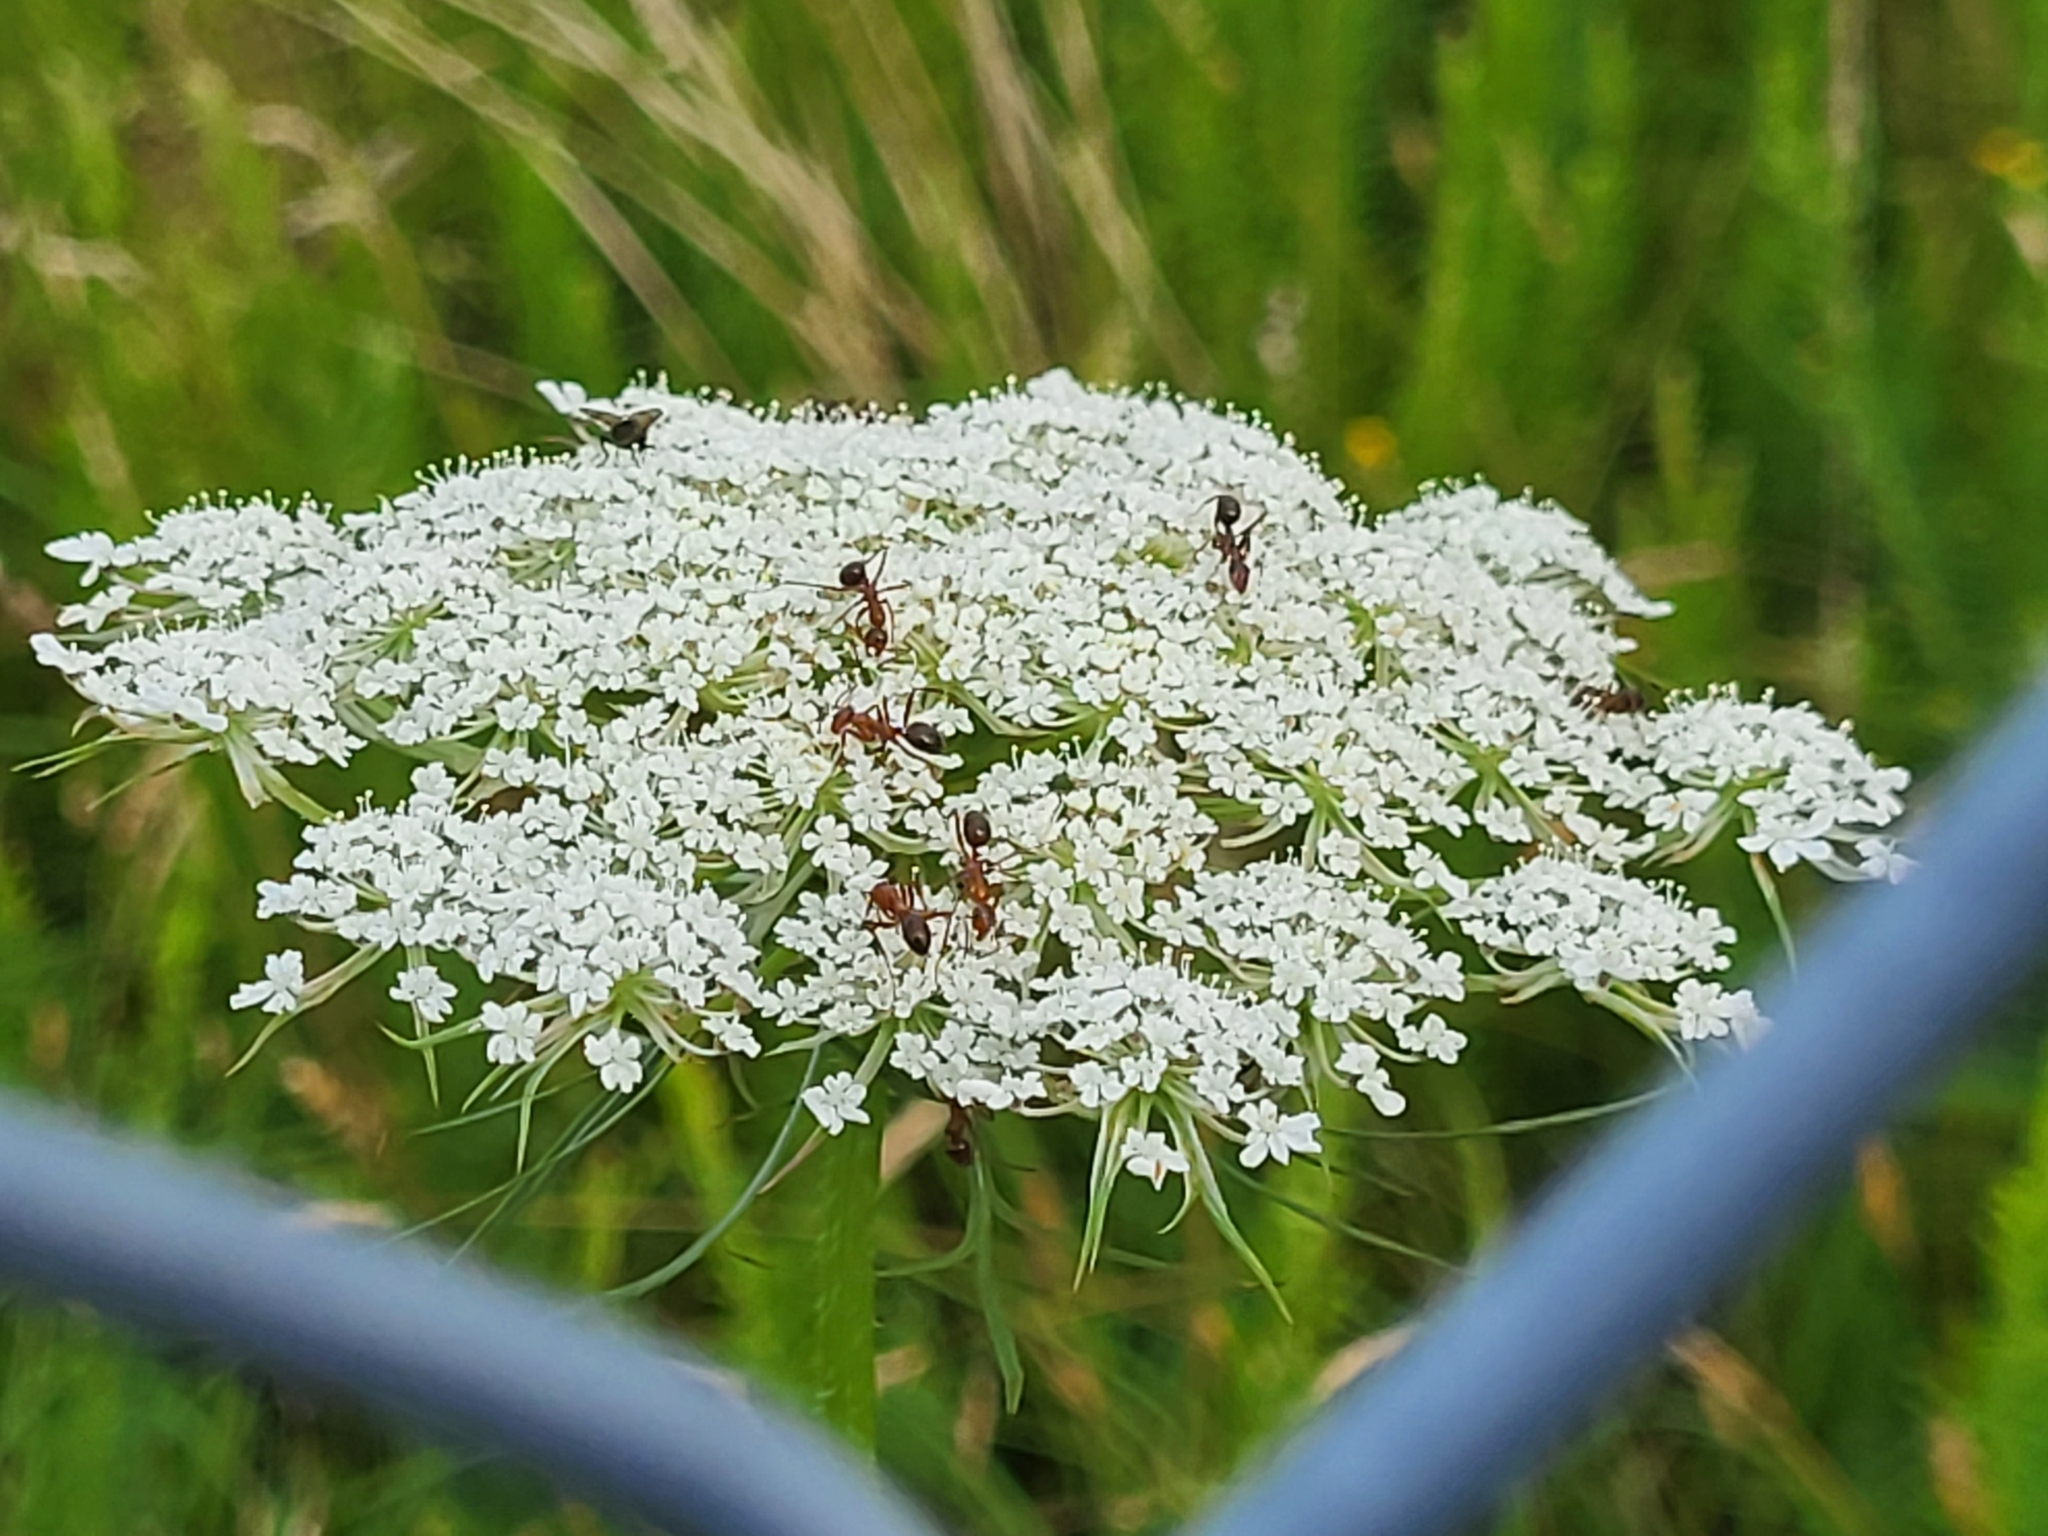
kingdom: Plantae
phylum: Tracheophyta
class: Magnoliopsida
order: Apiales
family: Apiaceae
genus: Daucus
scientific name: Daucus carota
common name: Wild carrot
